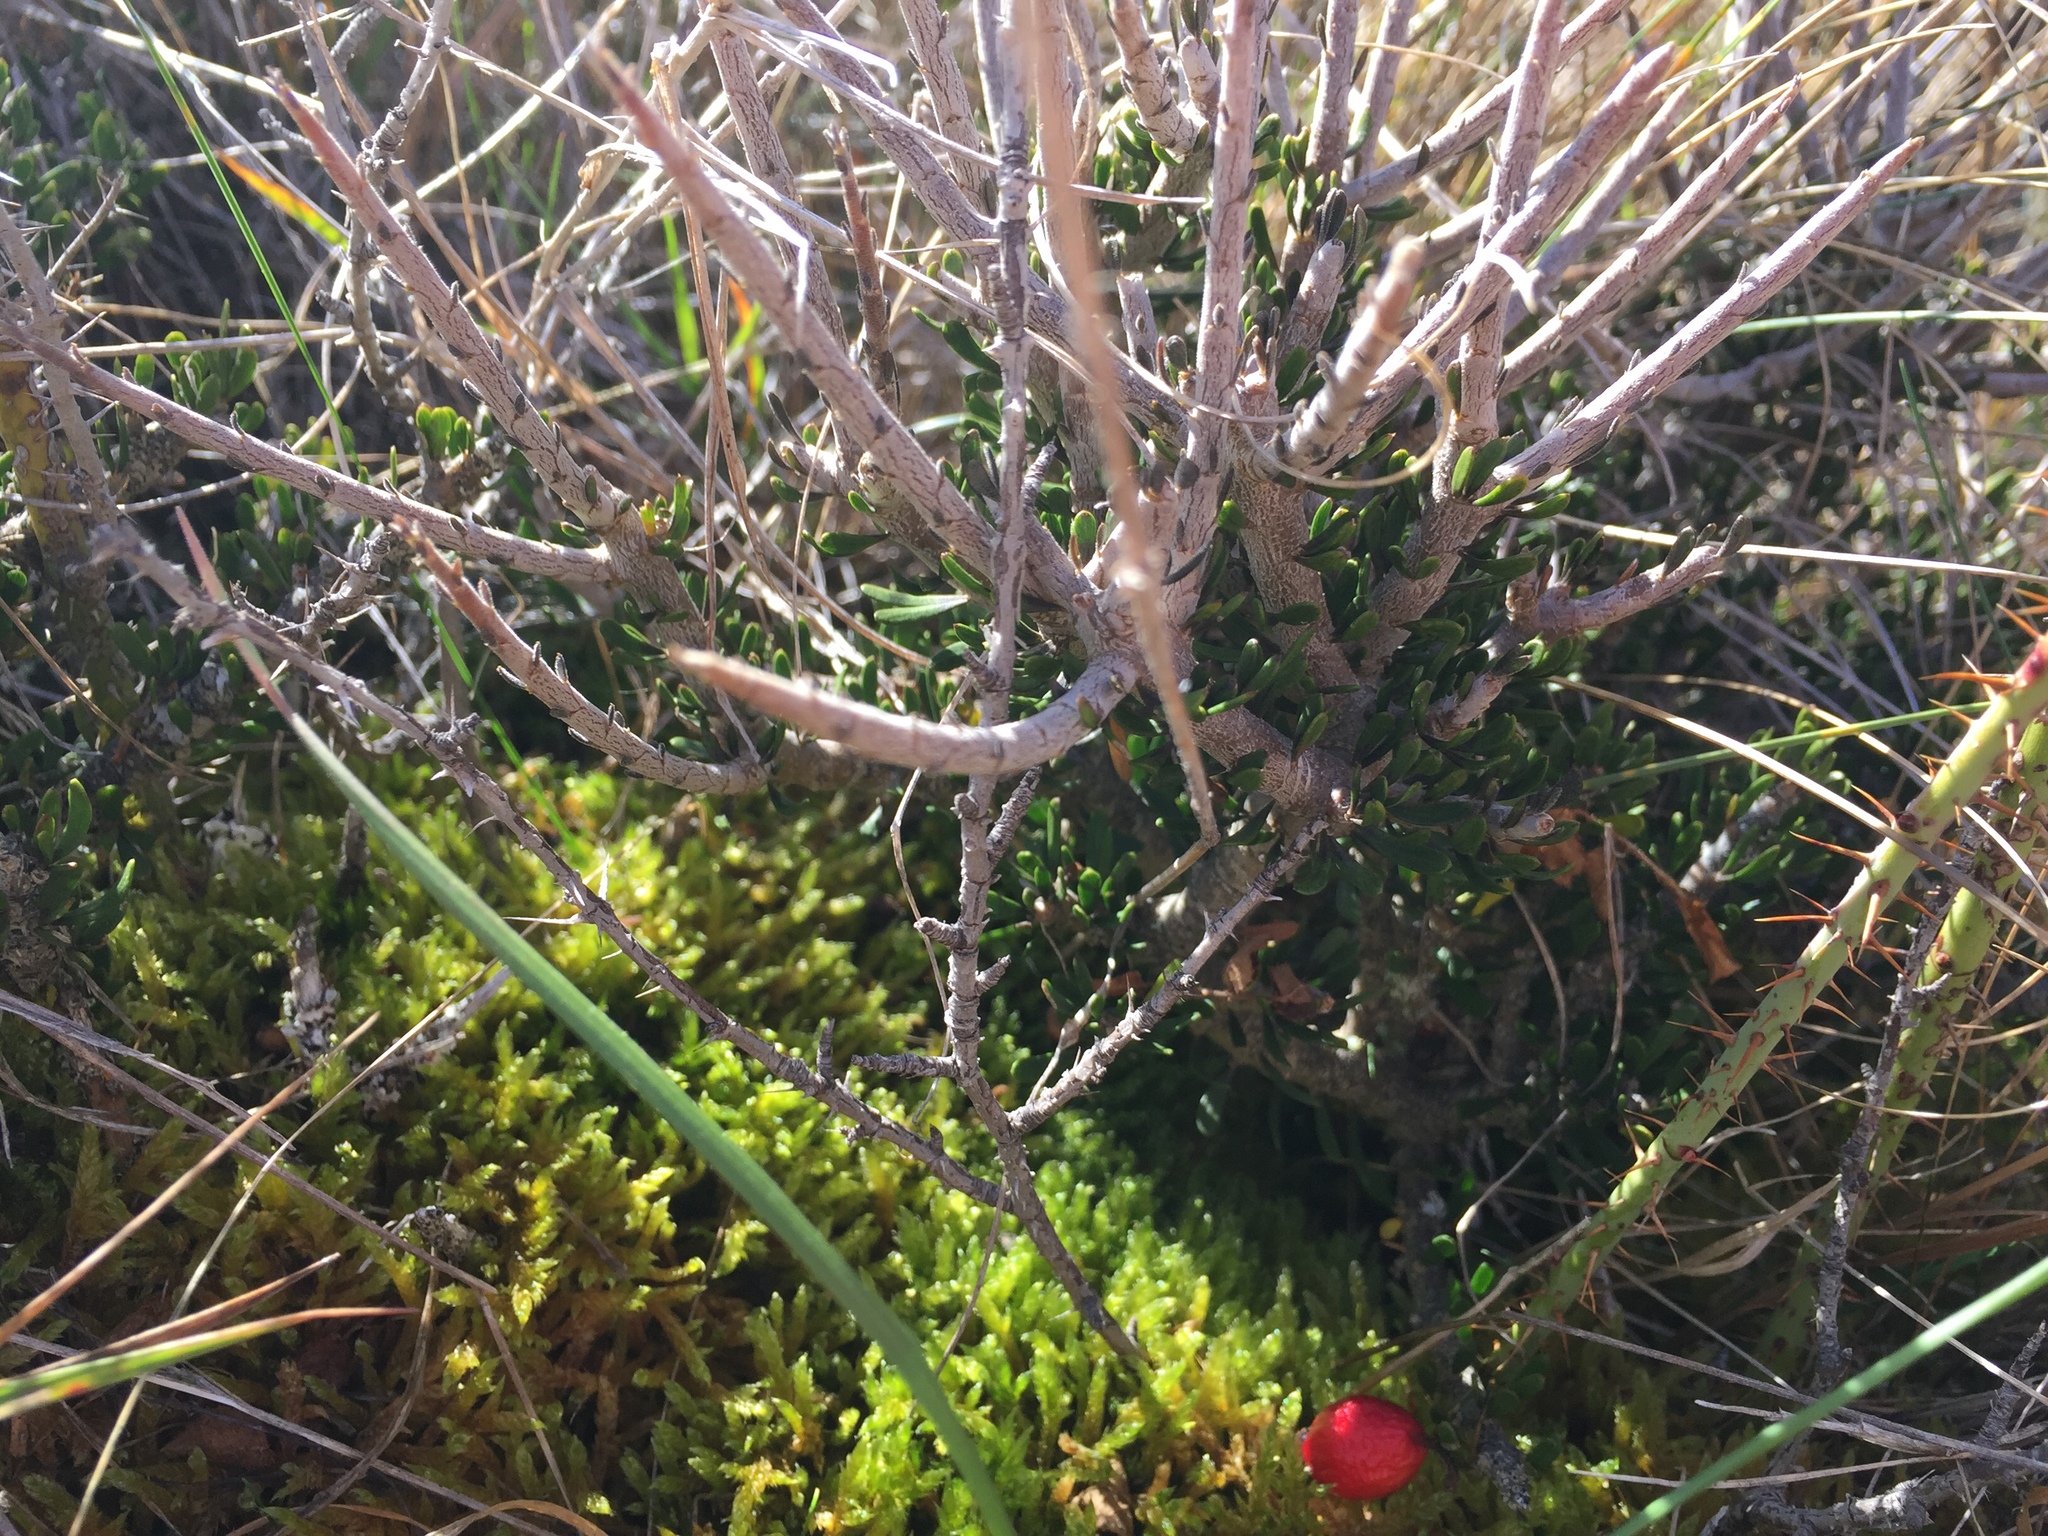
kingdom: Plantae
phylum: Tracheophyta
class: Magnoliopsida
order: Malpighiales
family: Violaceae
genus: Melicytus
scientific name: Melicytus alpinus
